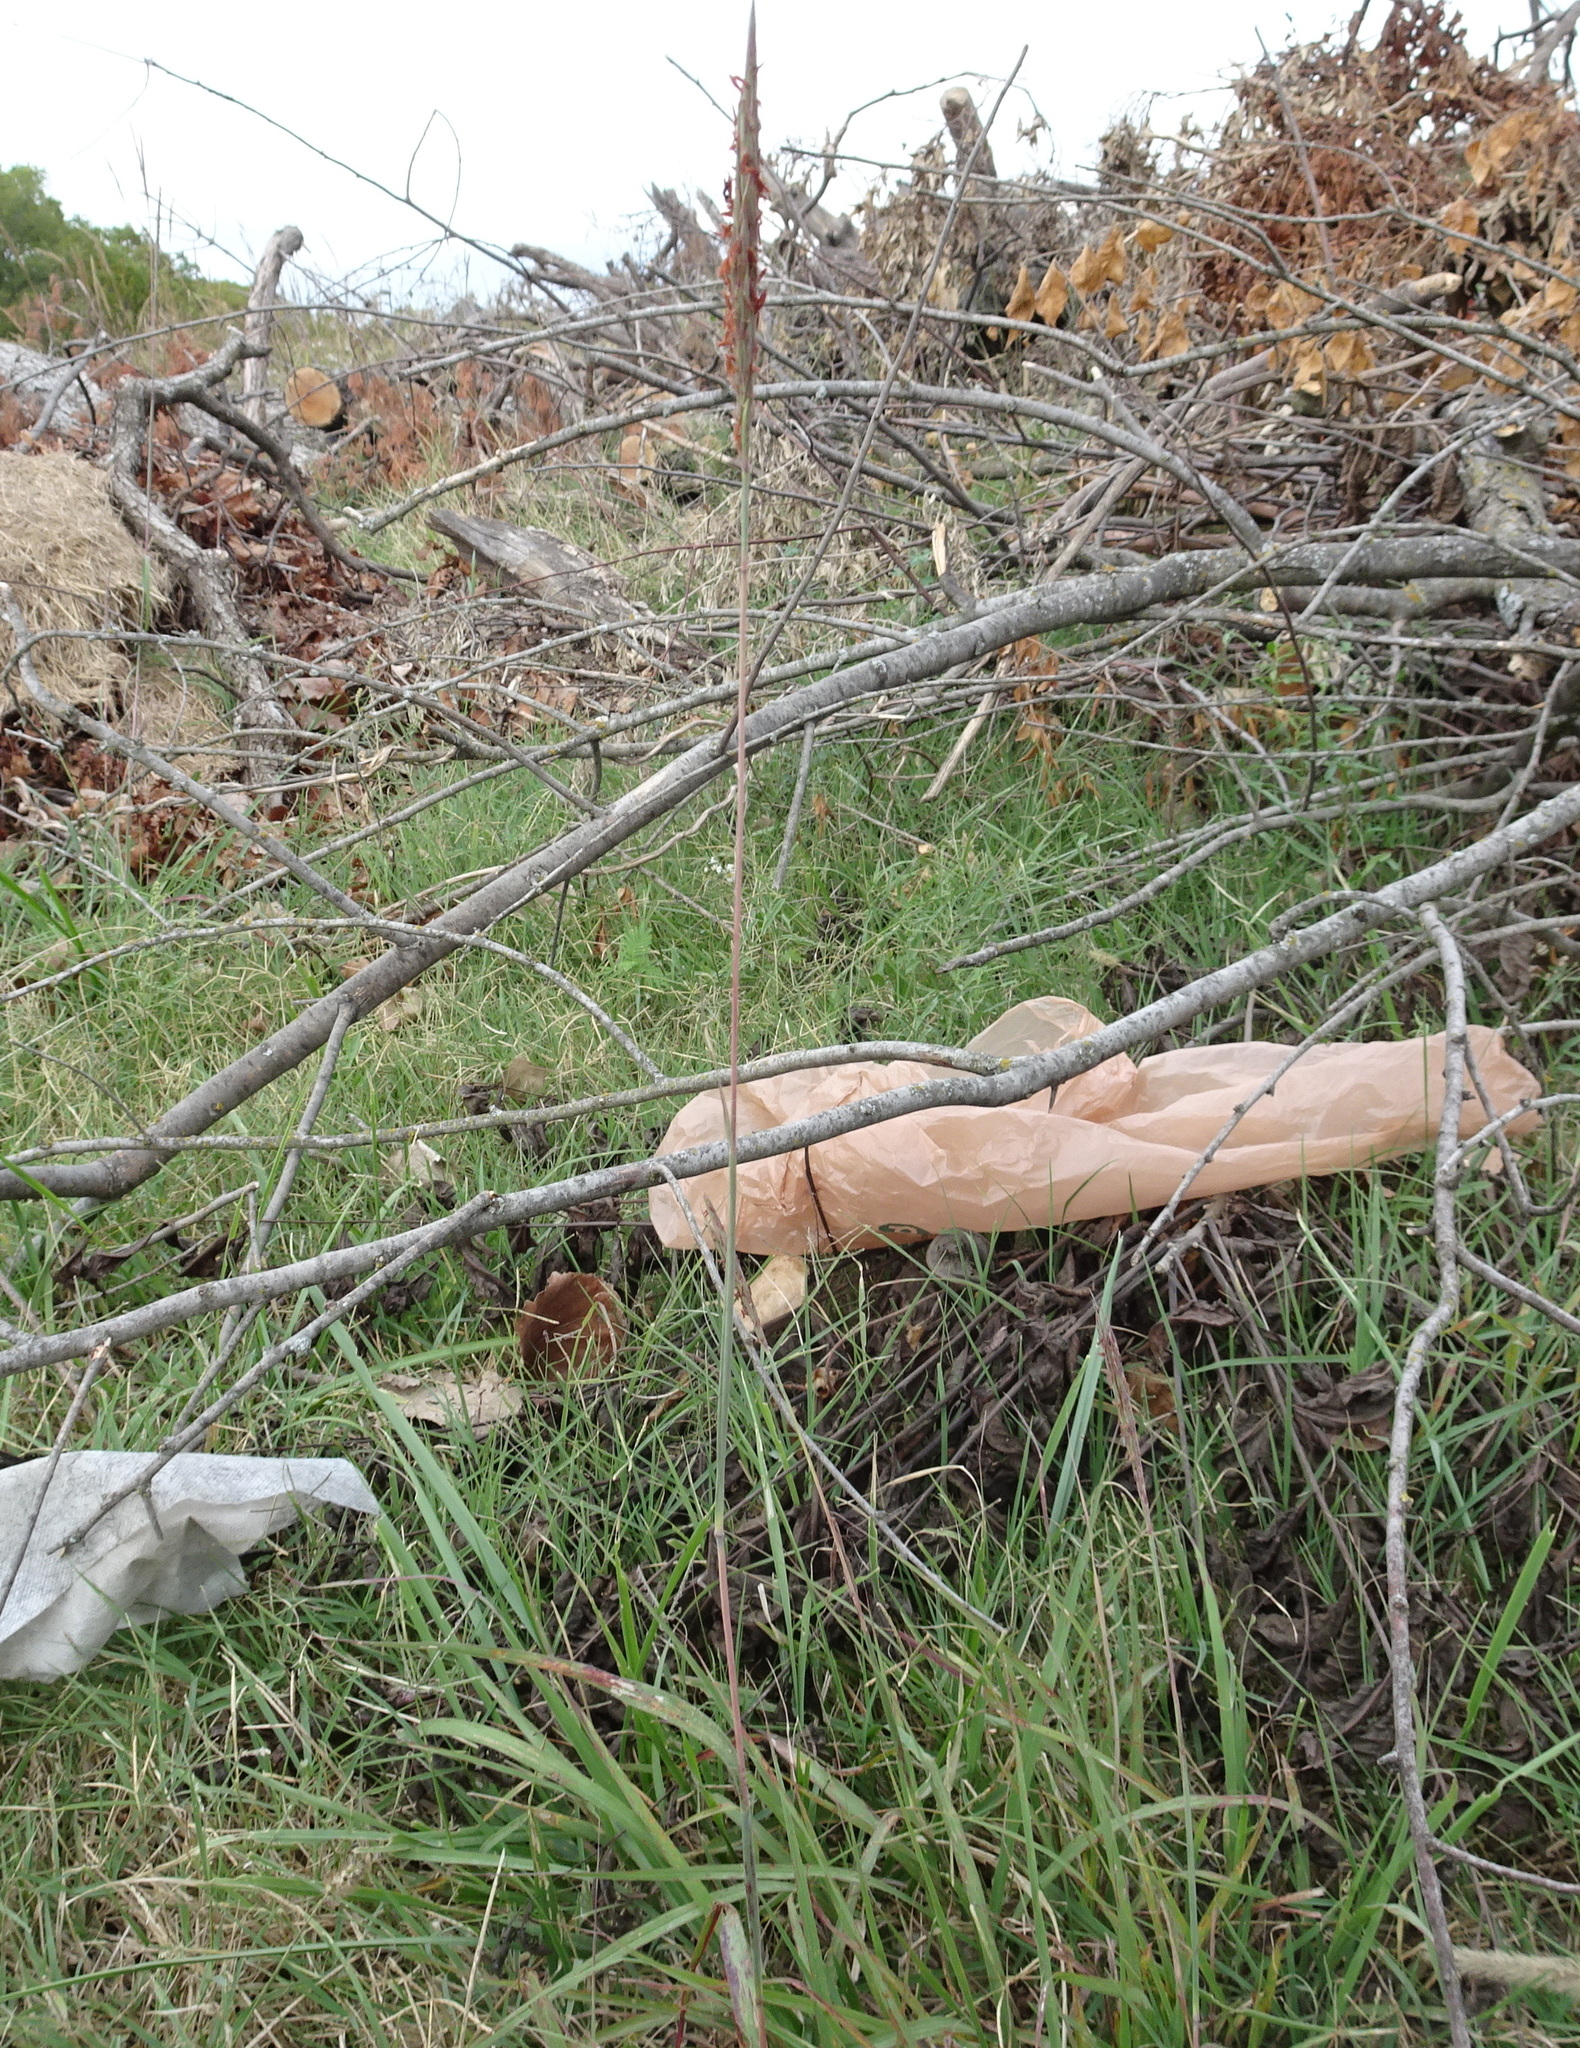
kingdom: Plantae
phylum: Tracheophyta
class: Liliopsida
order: Poales
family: Poaceae
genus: Andropogon
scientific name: Andropogon gerardi
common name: Big bluestem
